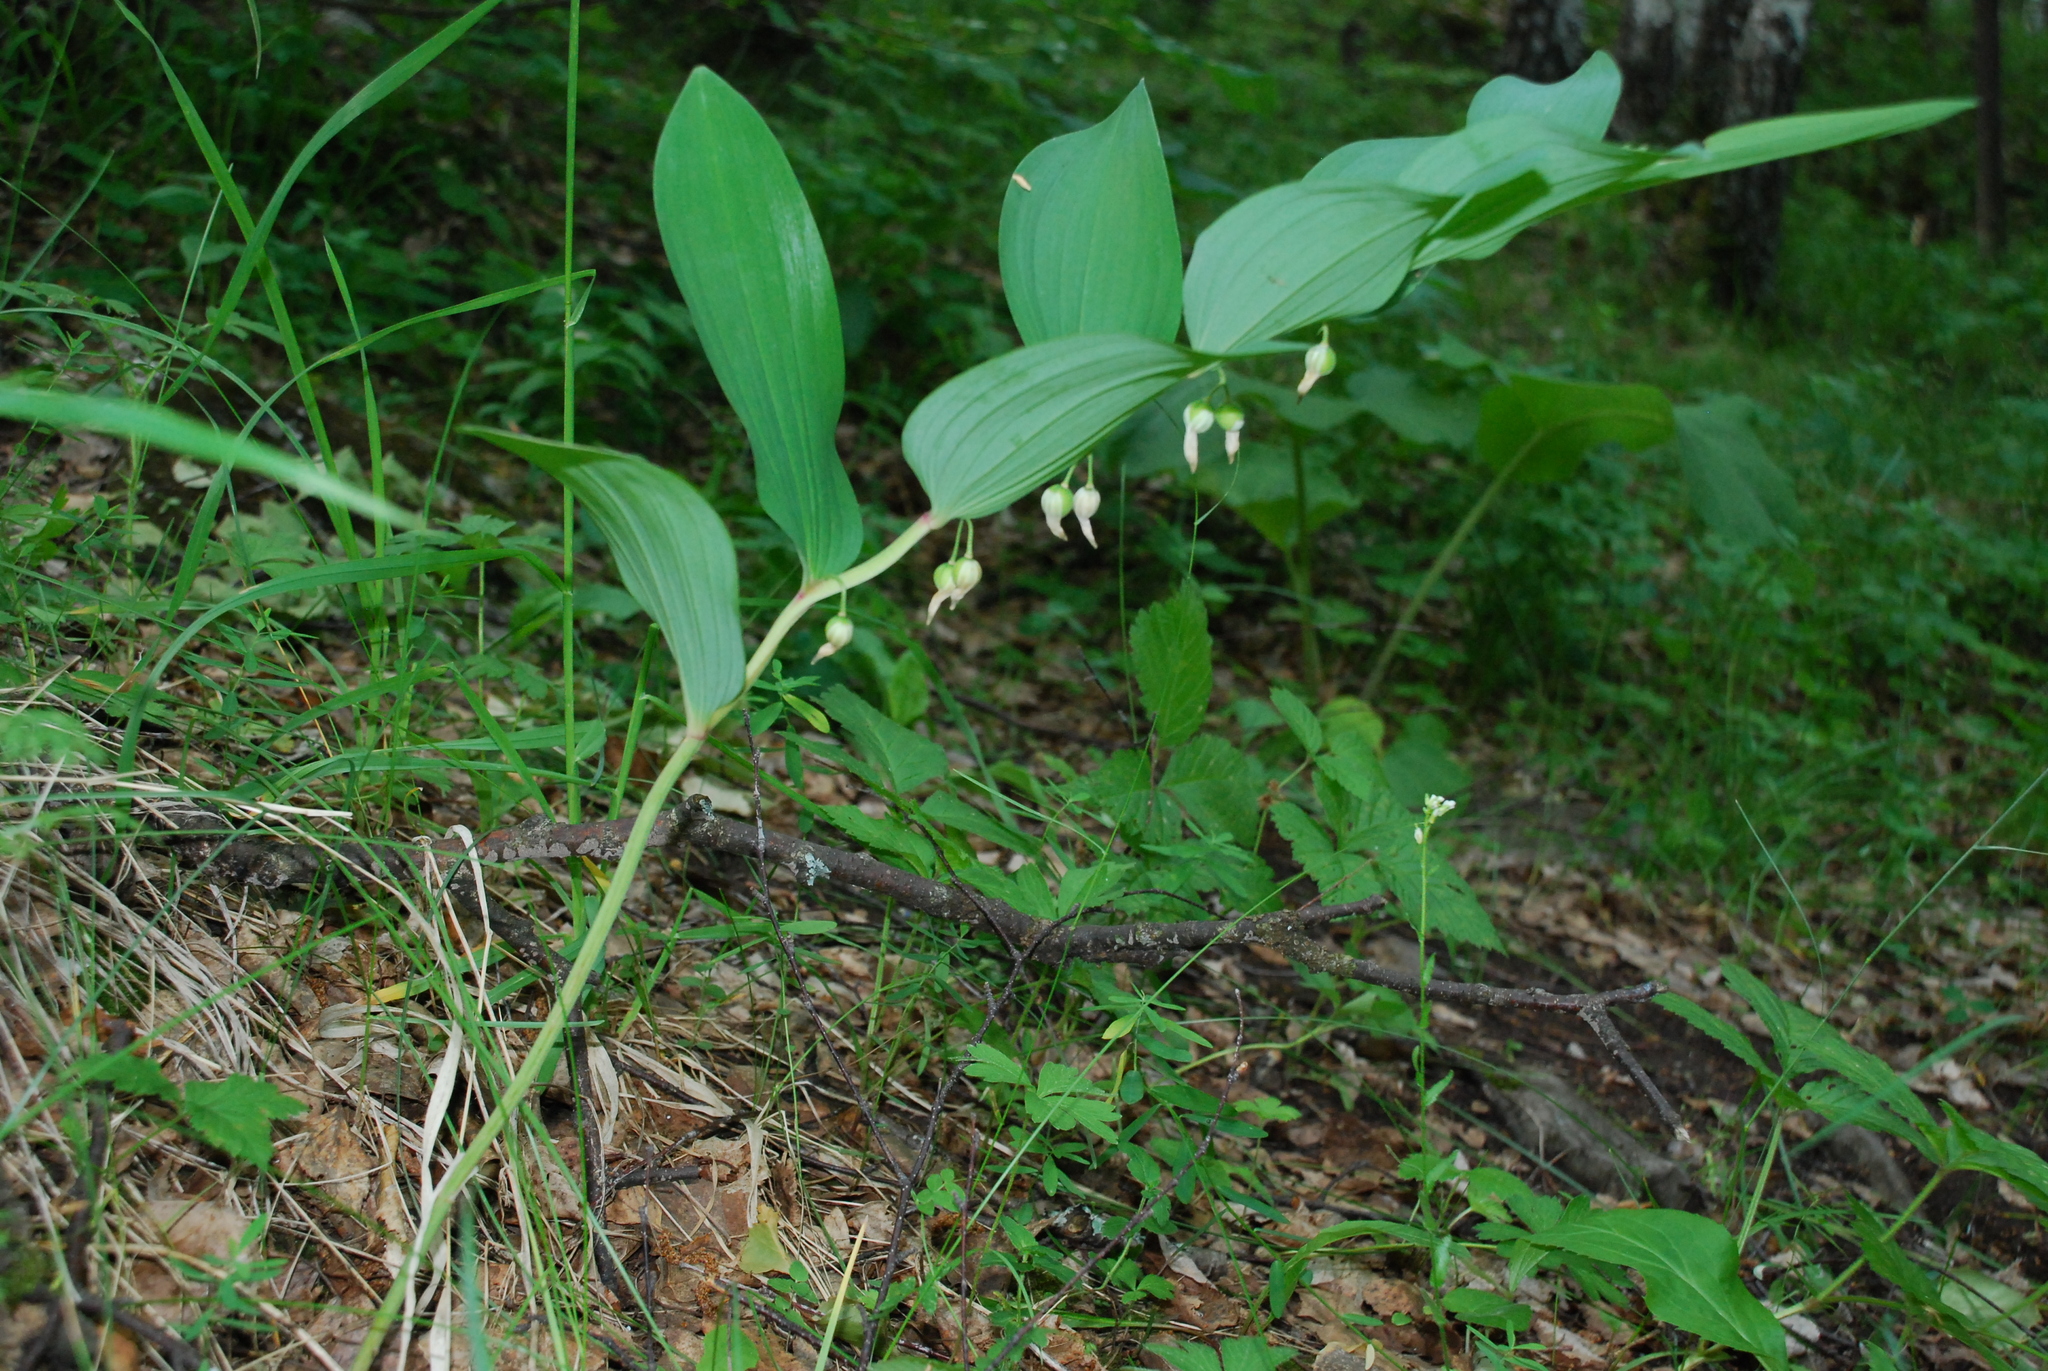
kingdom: Plantae
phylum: Tracheophyta
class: Liliopsida
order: Asparagales
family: Asparagaceae
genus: Polygonatum
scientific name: Polygonatum multiflorum
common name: Solomon's-seal
